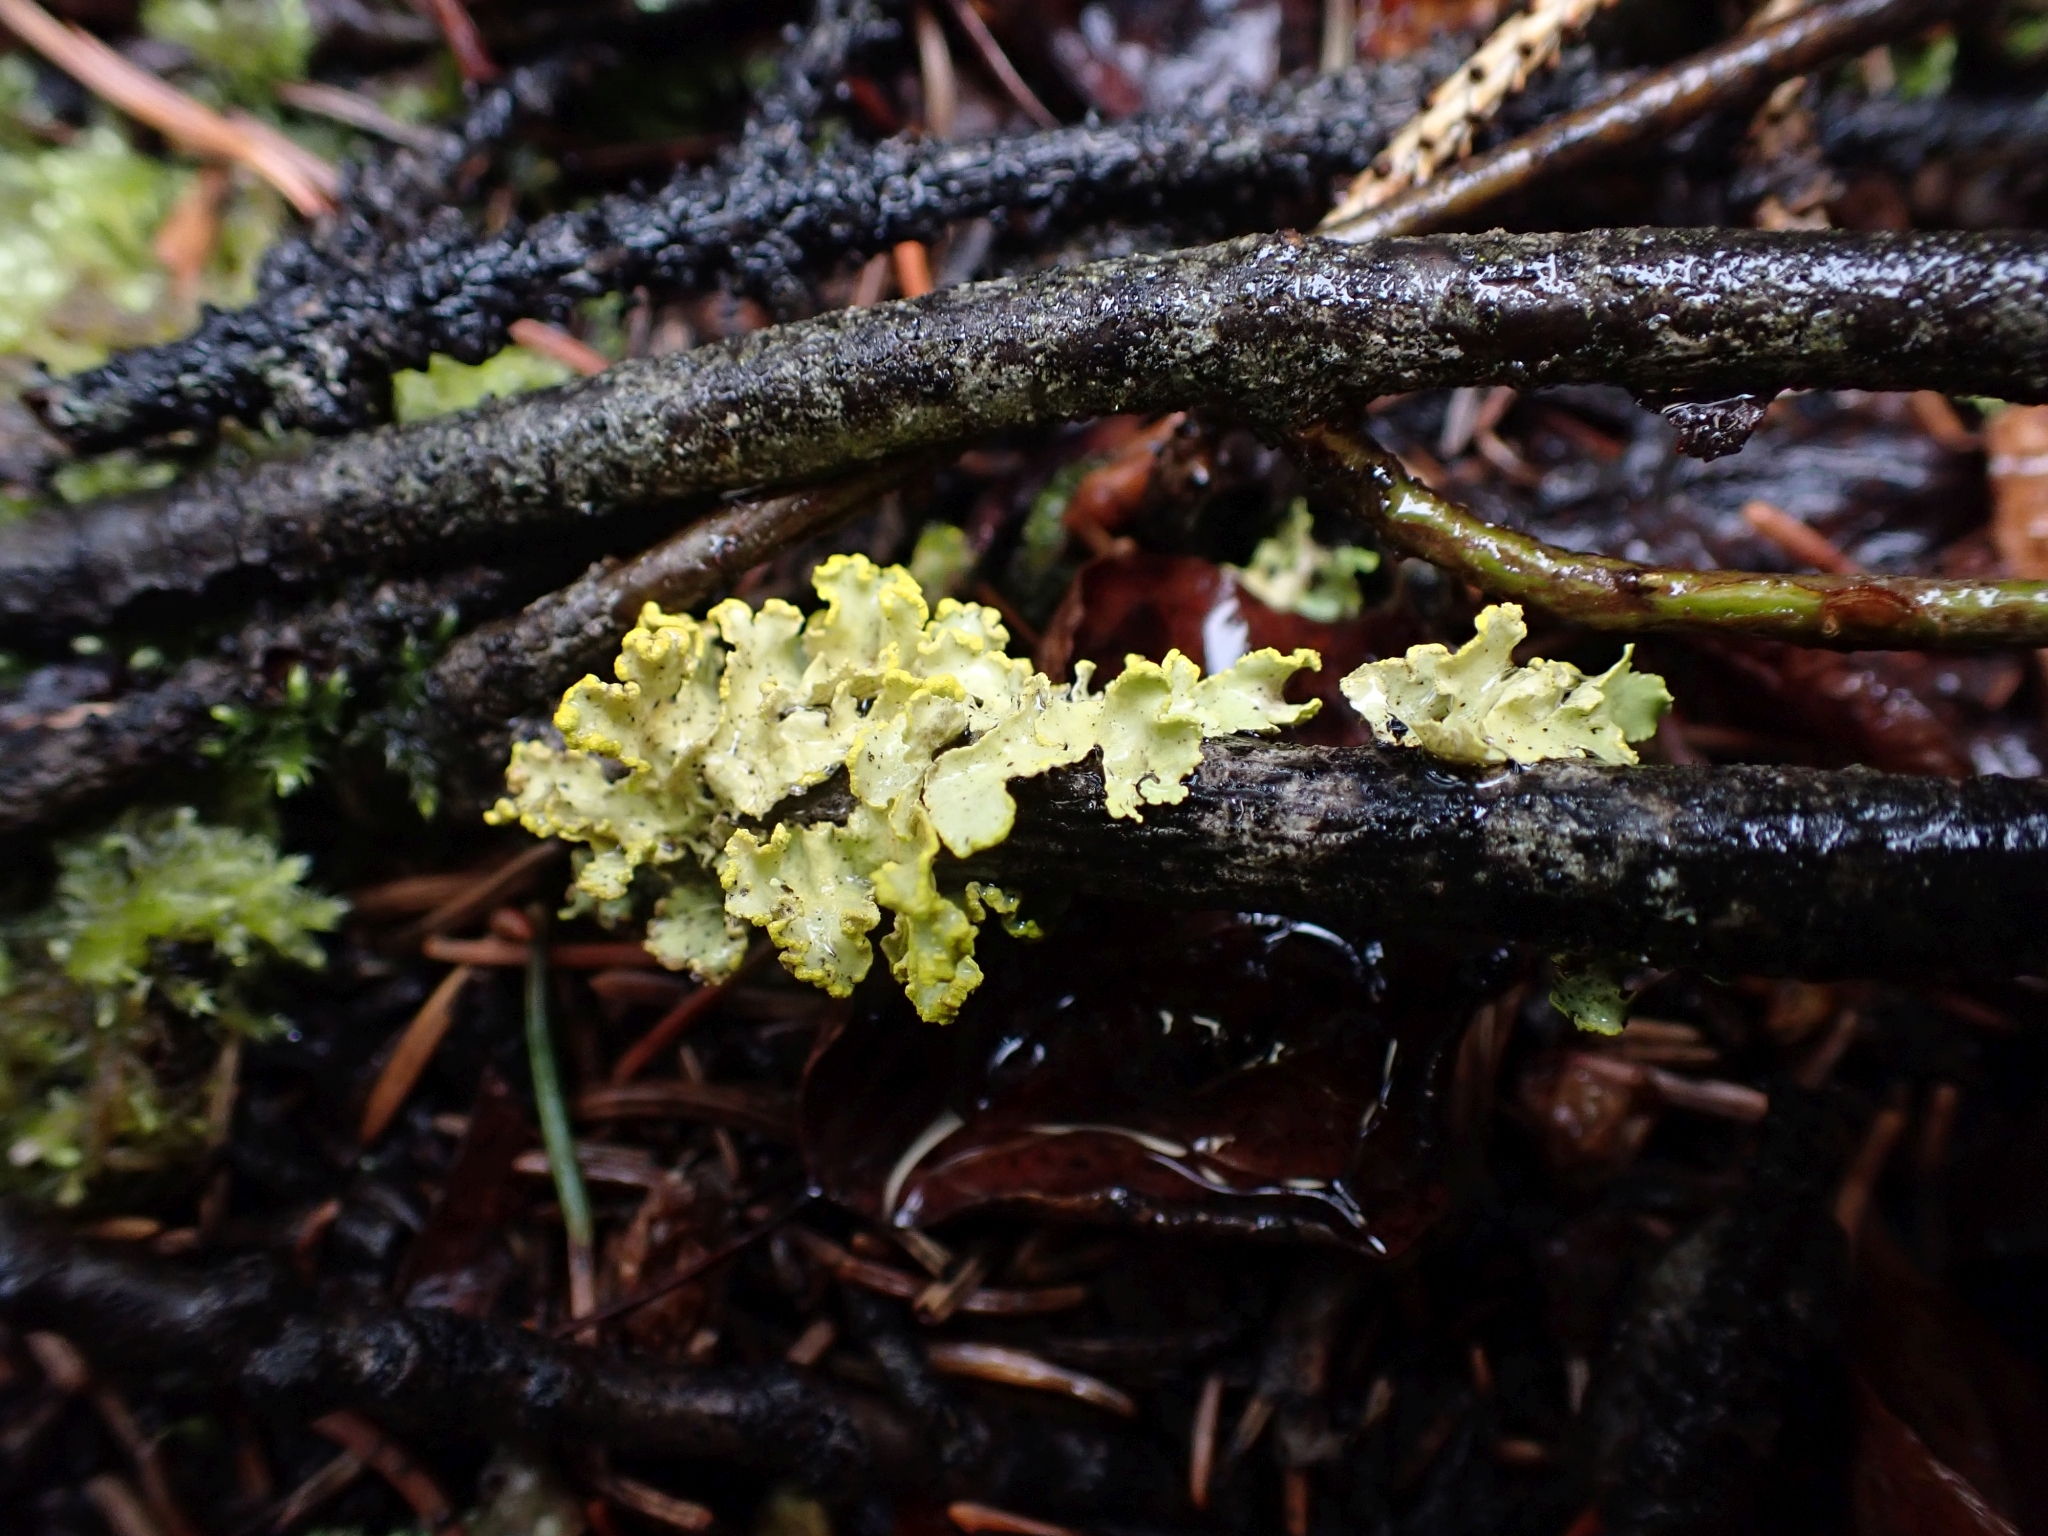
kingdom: Fungi
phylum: Ascomycota
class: Lecanoromycetes
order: Lecanorales
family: Parmeliaceae
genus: Vulpicida
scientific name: Vulpicida pinastri
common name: Powdered sunshine lichen
